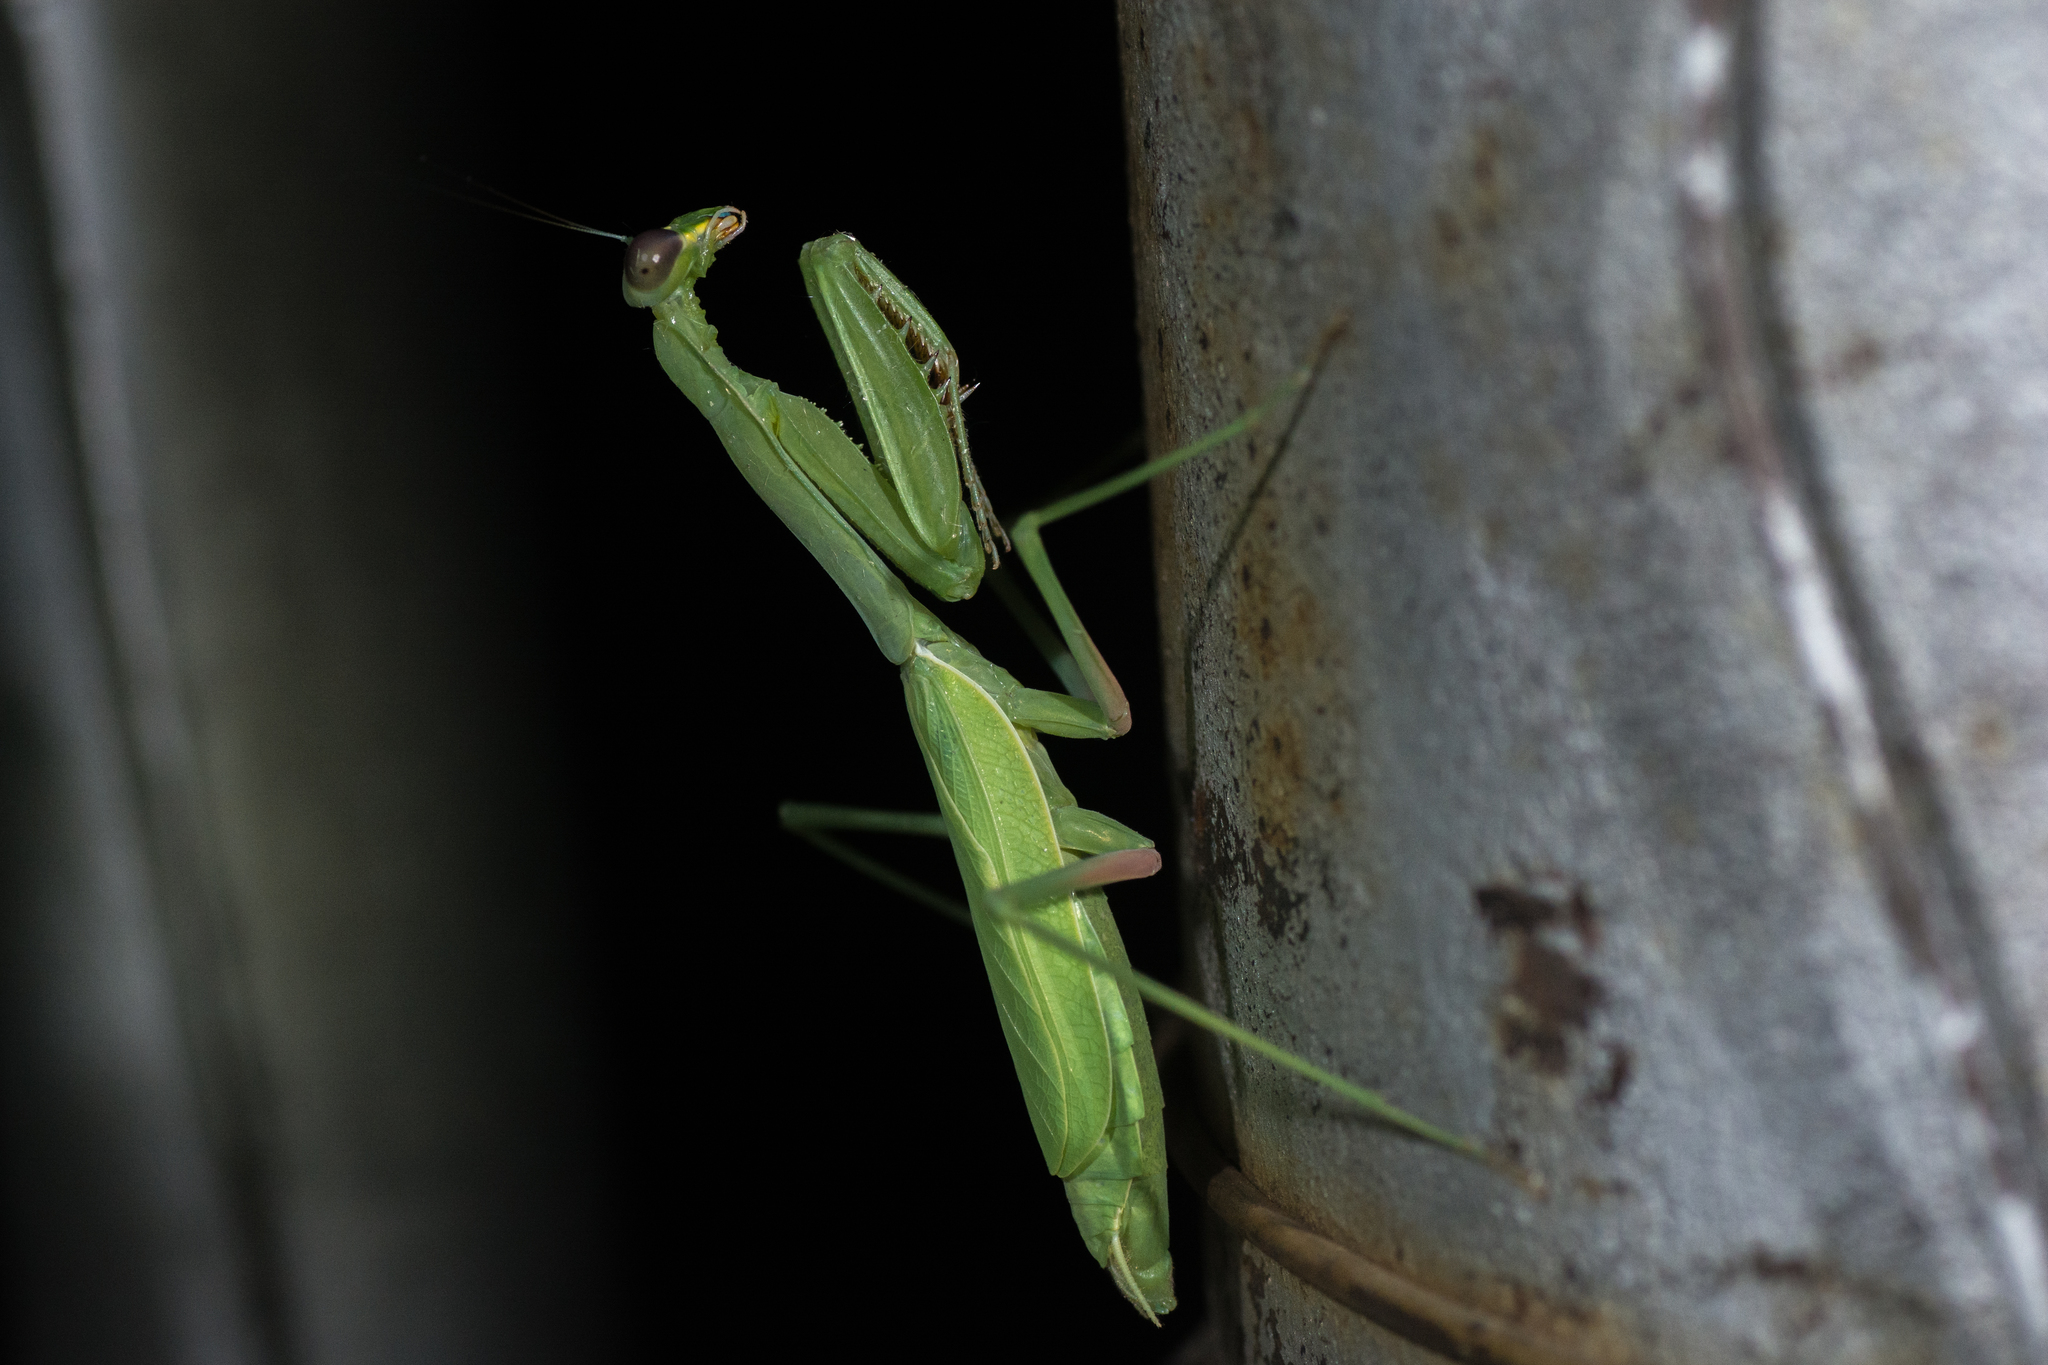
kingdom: Animalia
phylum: Arthropoda
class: Insecta
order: Mantodea
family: Mantidae
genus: Stagmomantis
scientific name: Stagmomantis limbata
